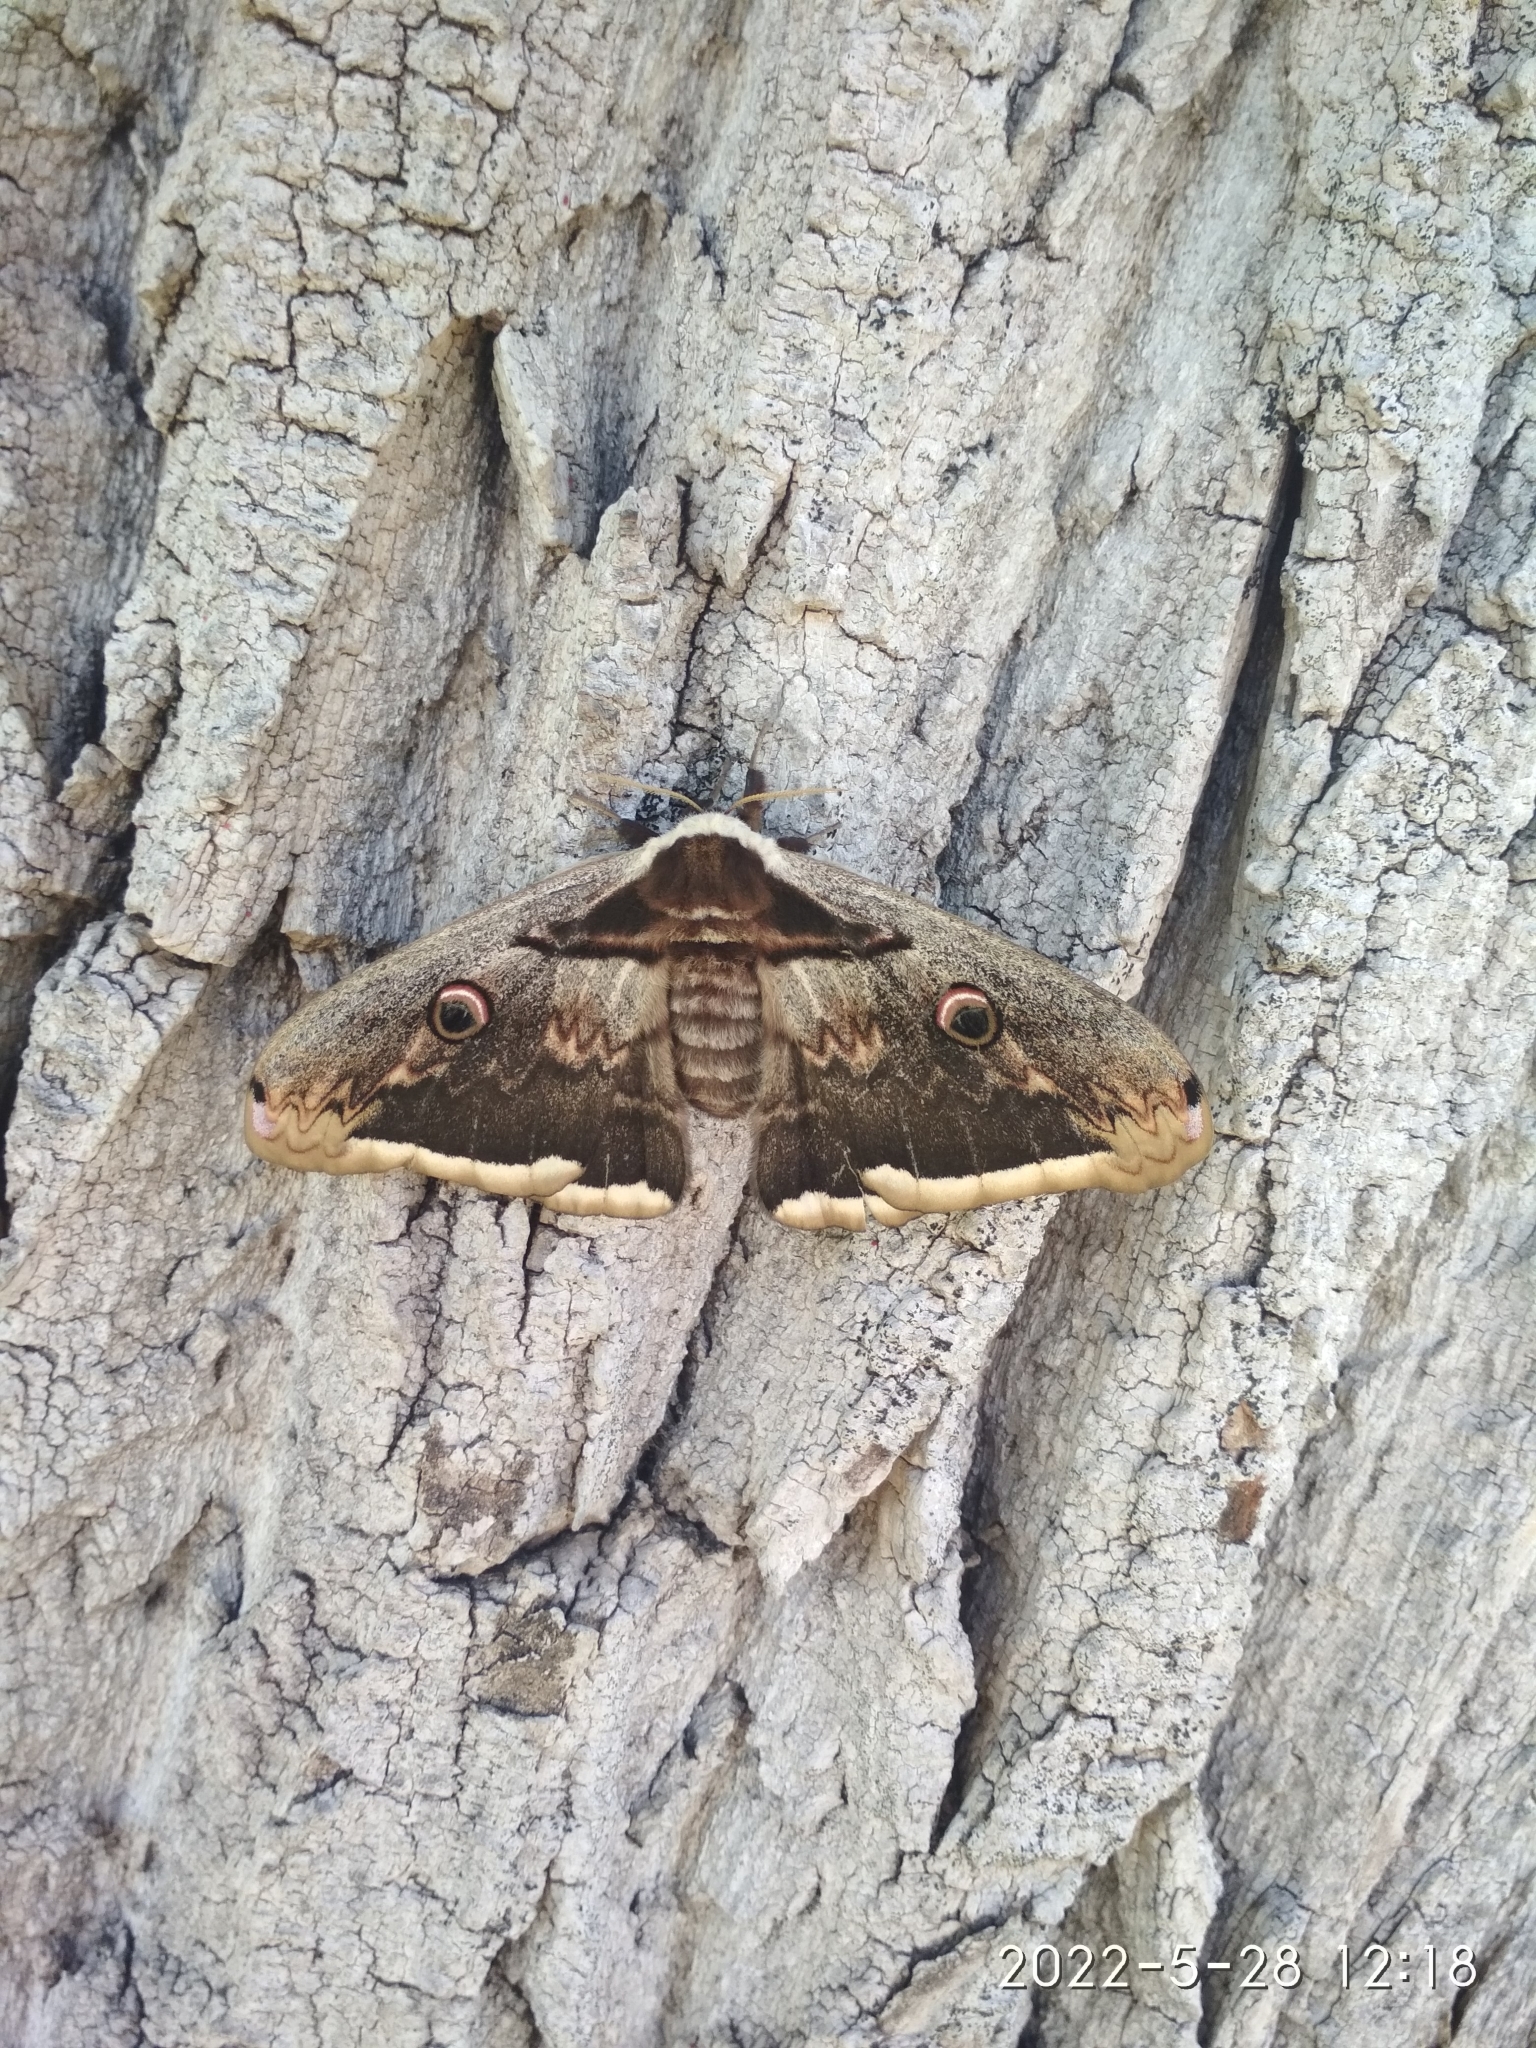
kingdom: Animalia
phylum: Arthropoda
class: Insecta
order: Lepidoptera
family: Saturniidae
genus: Saturnia
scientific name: Saturnia pyri
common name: Great peacock moth
